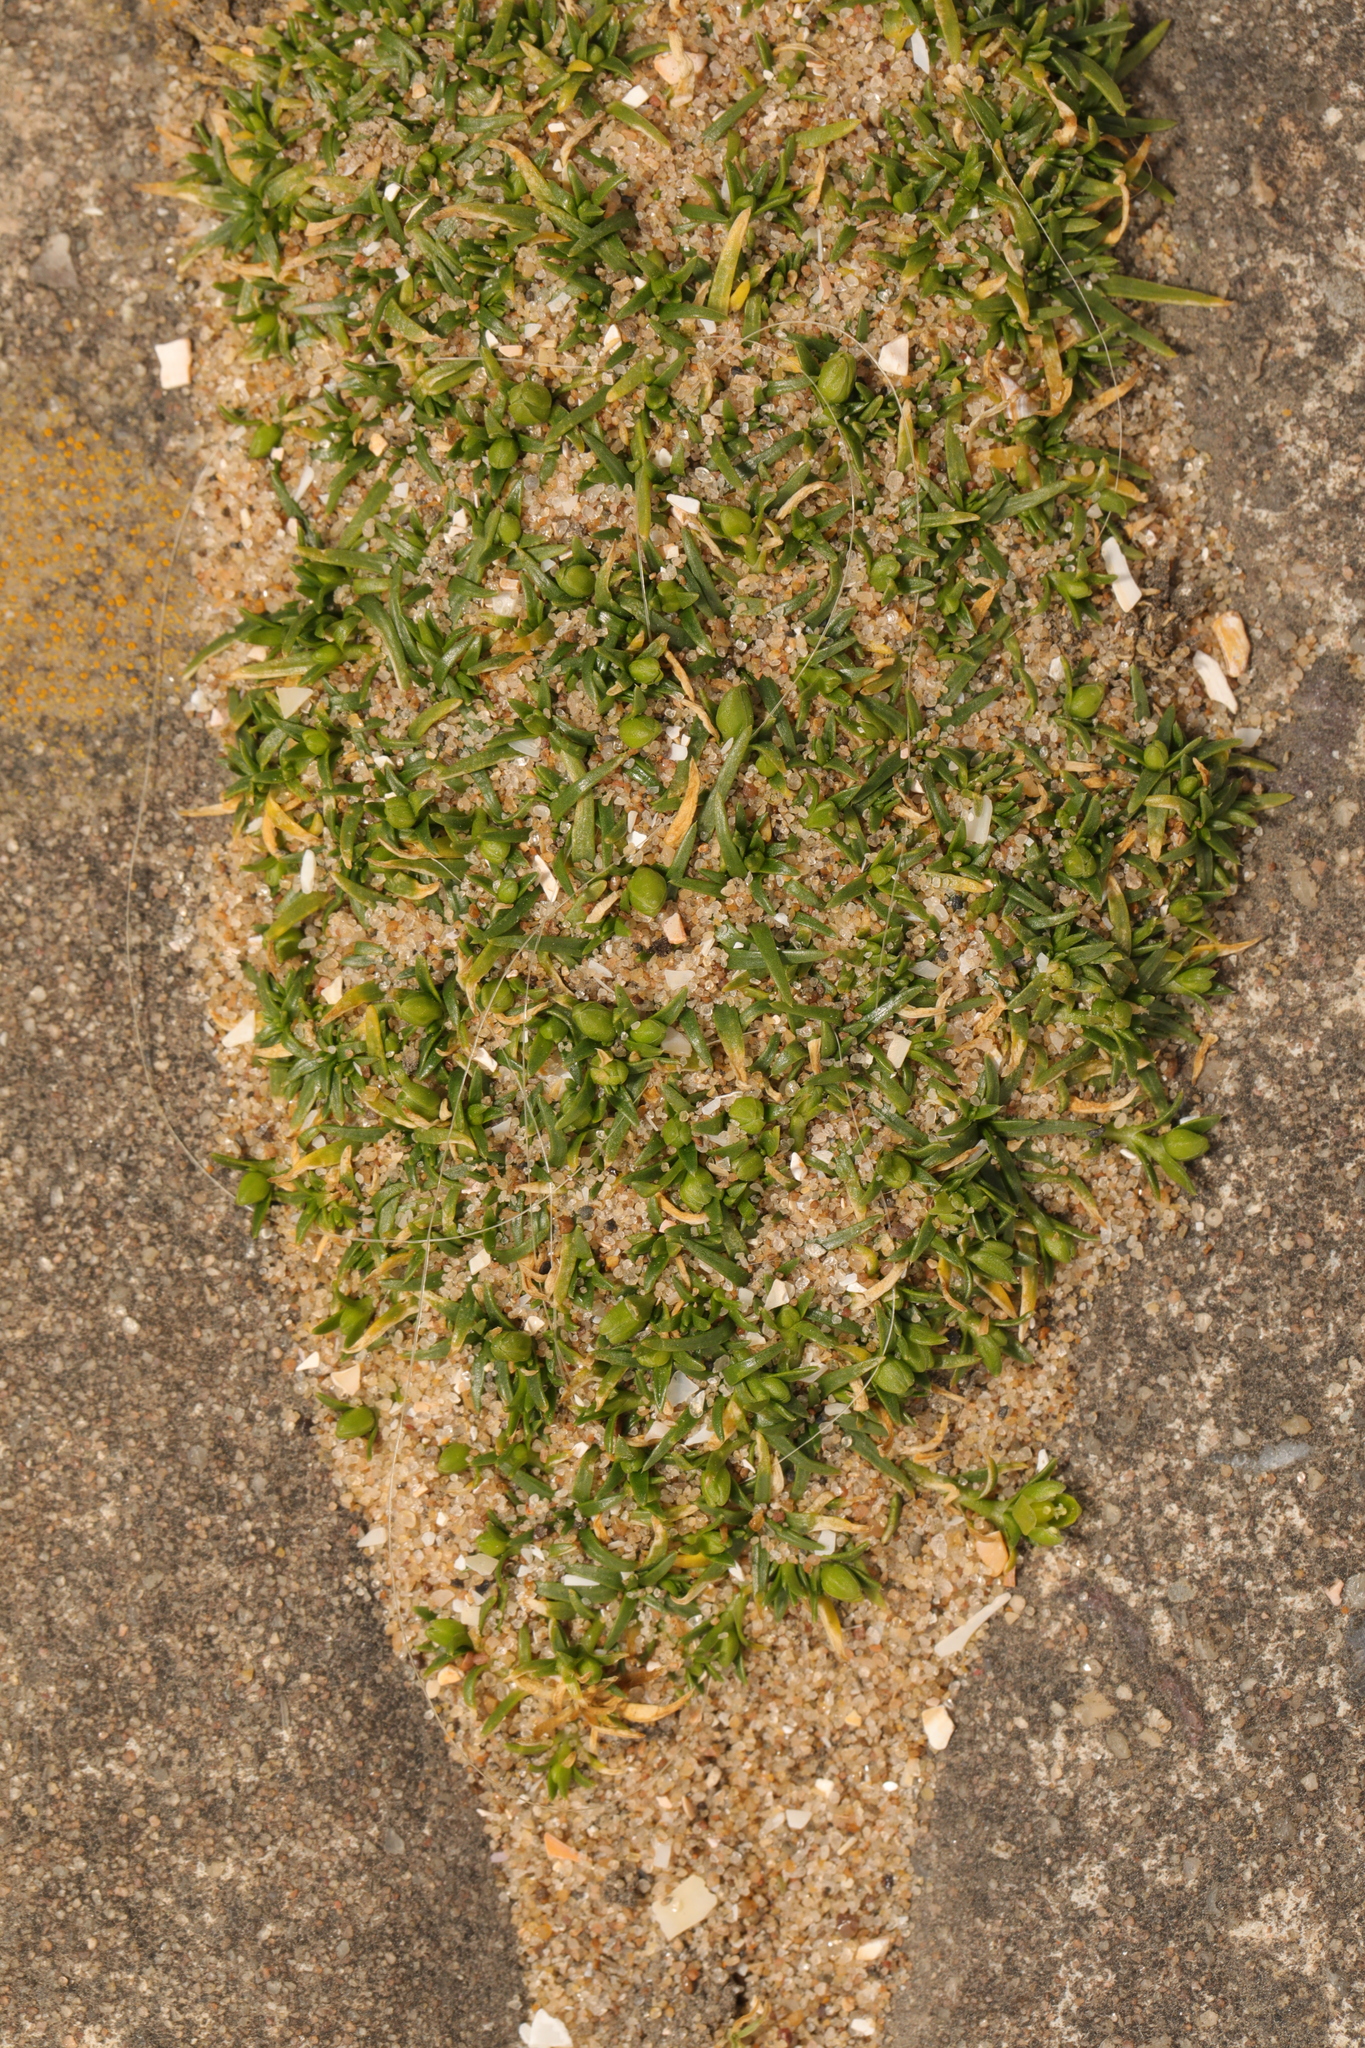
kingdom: Plantae
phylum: Tracheophyta
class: Magnoliopsida
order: Caryophyllales
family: Caryophyllaceae
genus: Sagina
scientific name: Sagina procumbens
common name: Procumbent pearlwort
